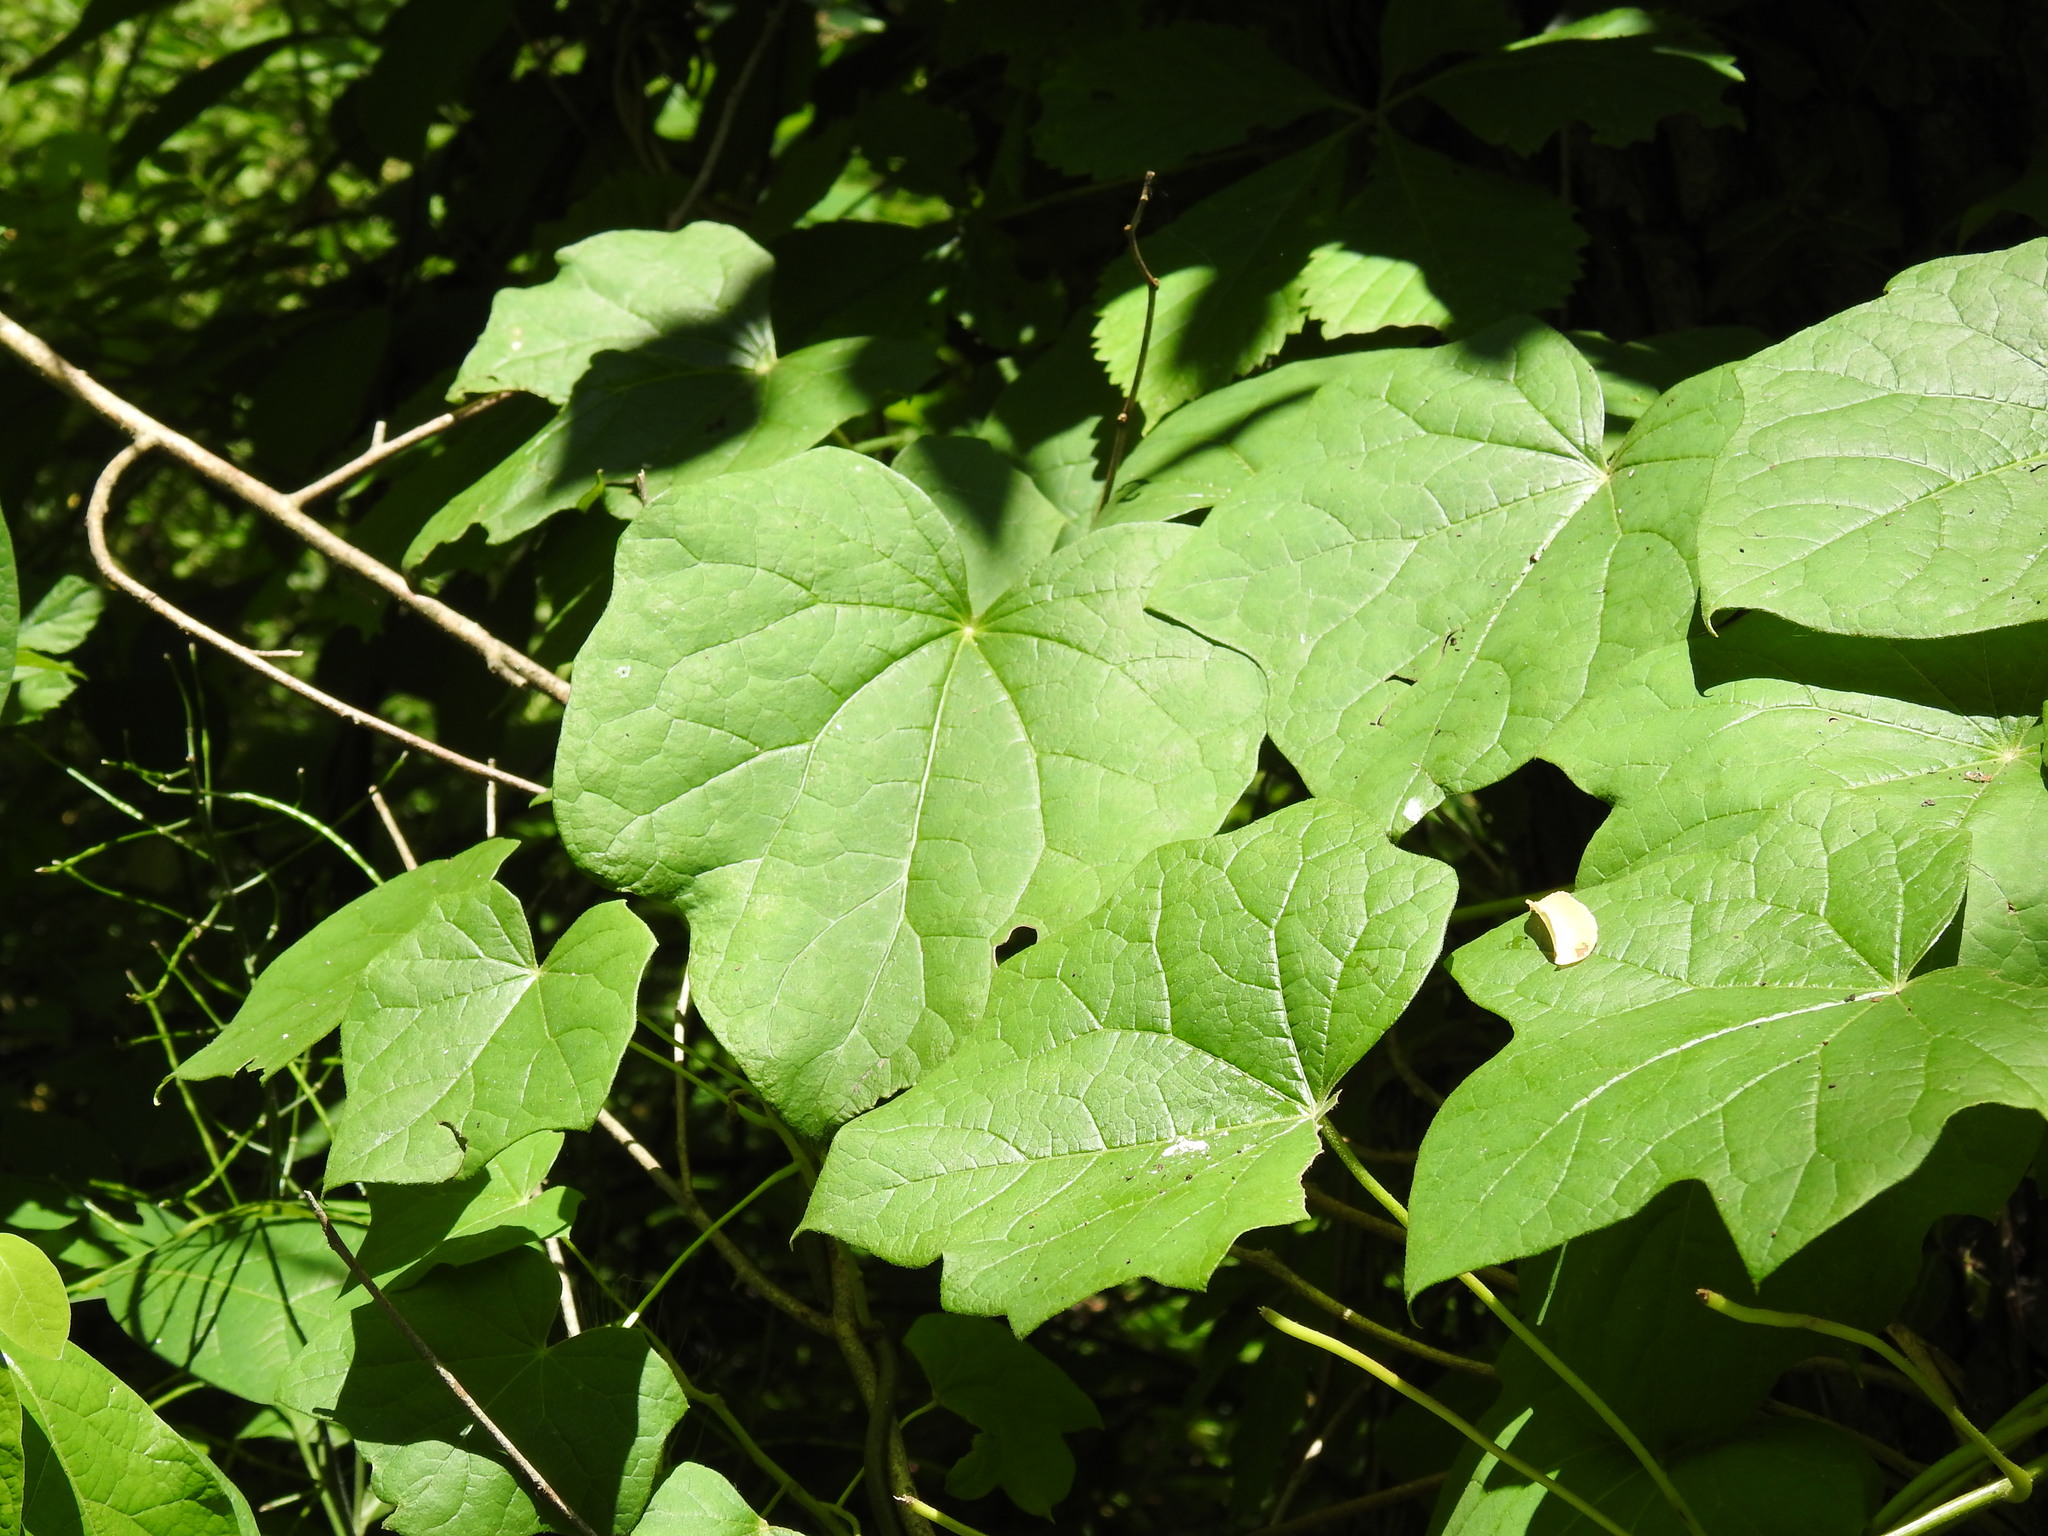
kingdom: Plantae
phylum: Tracheophyta
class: Magnoliopsida
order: Ranunculales
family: Menispermaceae
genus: Menispermum
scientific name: Menispermum canadense
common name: Moonseed
